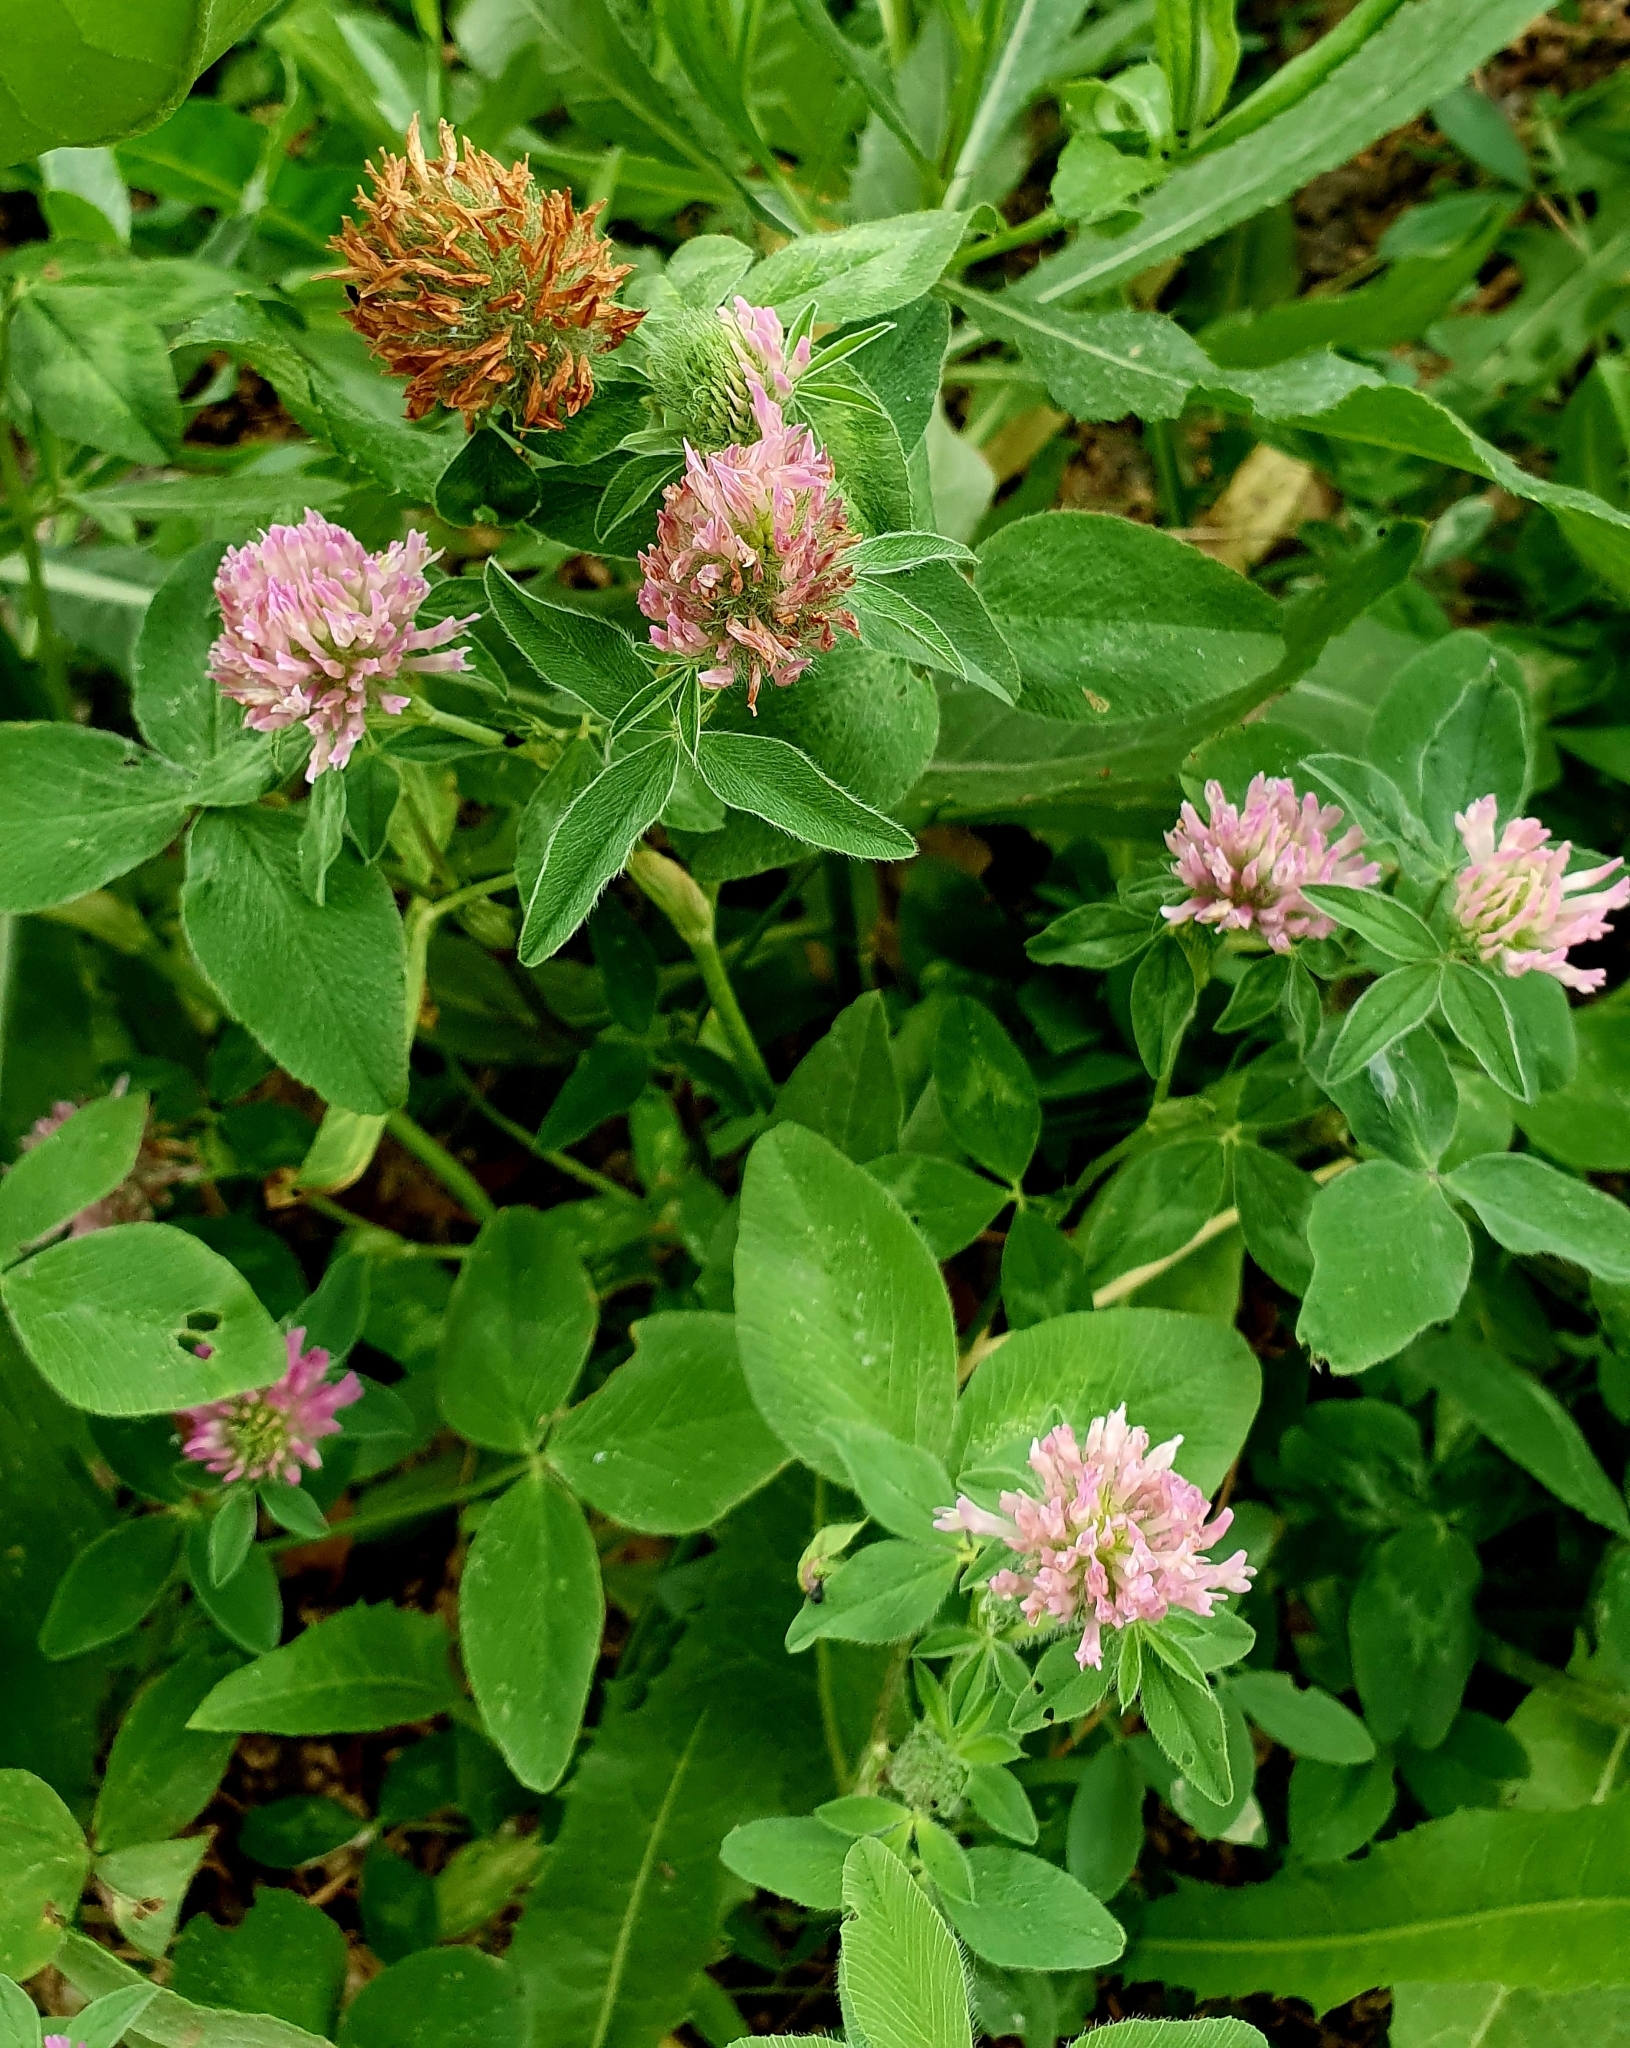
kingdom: Plantae
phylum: Tracheophyta
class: Magnoliopsida
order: Fabales
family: Fabaceae
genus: Trifolium
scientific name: Trifolium pratense
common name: Red clover
